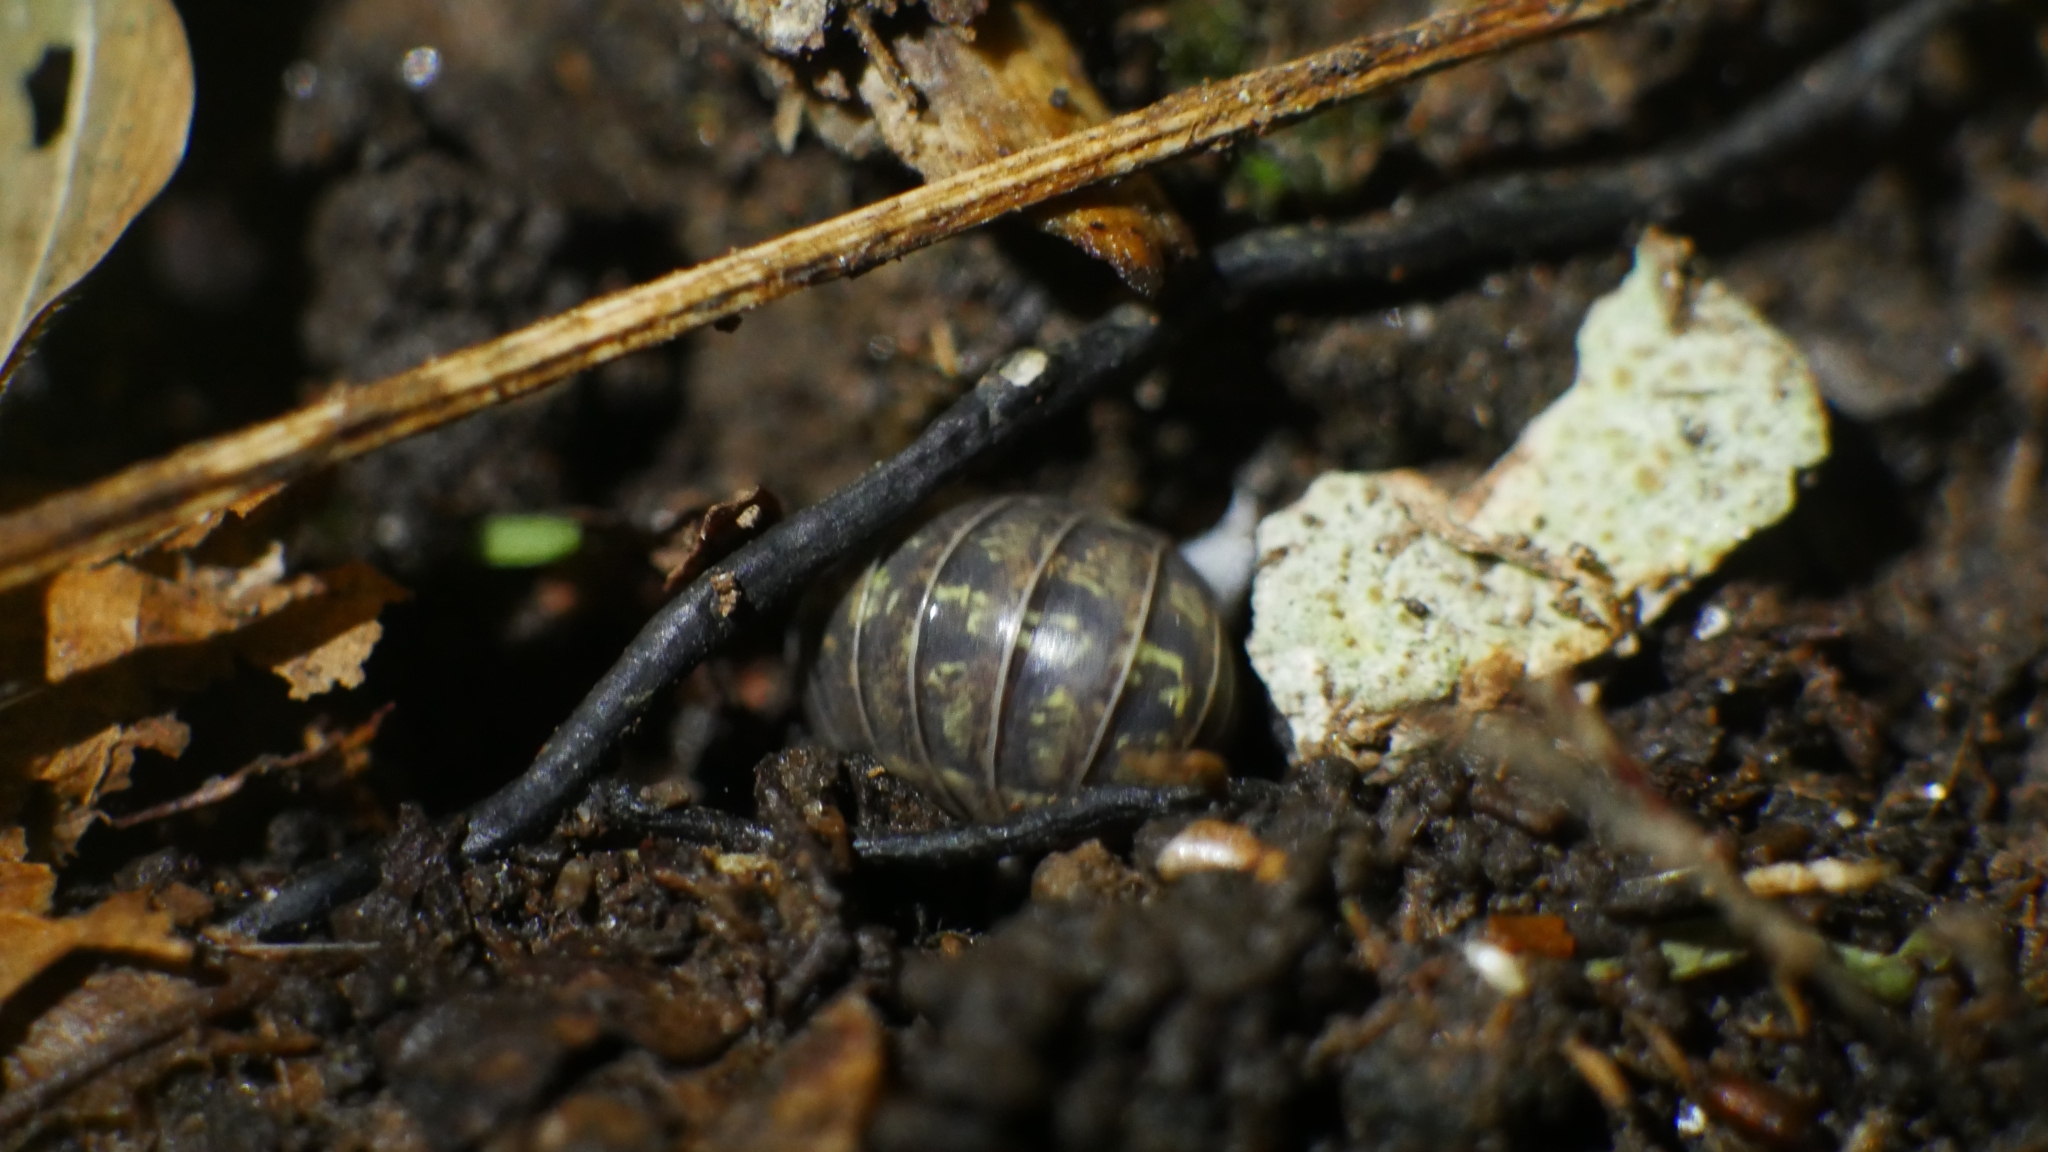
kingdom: Animalia
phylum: Arthropoda
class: Malacostraca
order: Isopoda
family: Armadillidiidae
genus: Armadillidium
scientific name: Armadillidium vulgare
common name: Common pill woodlouse
